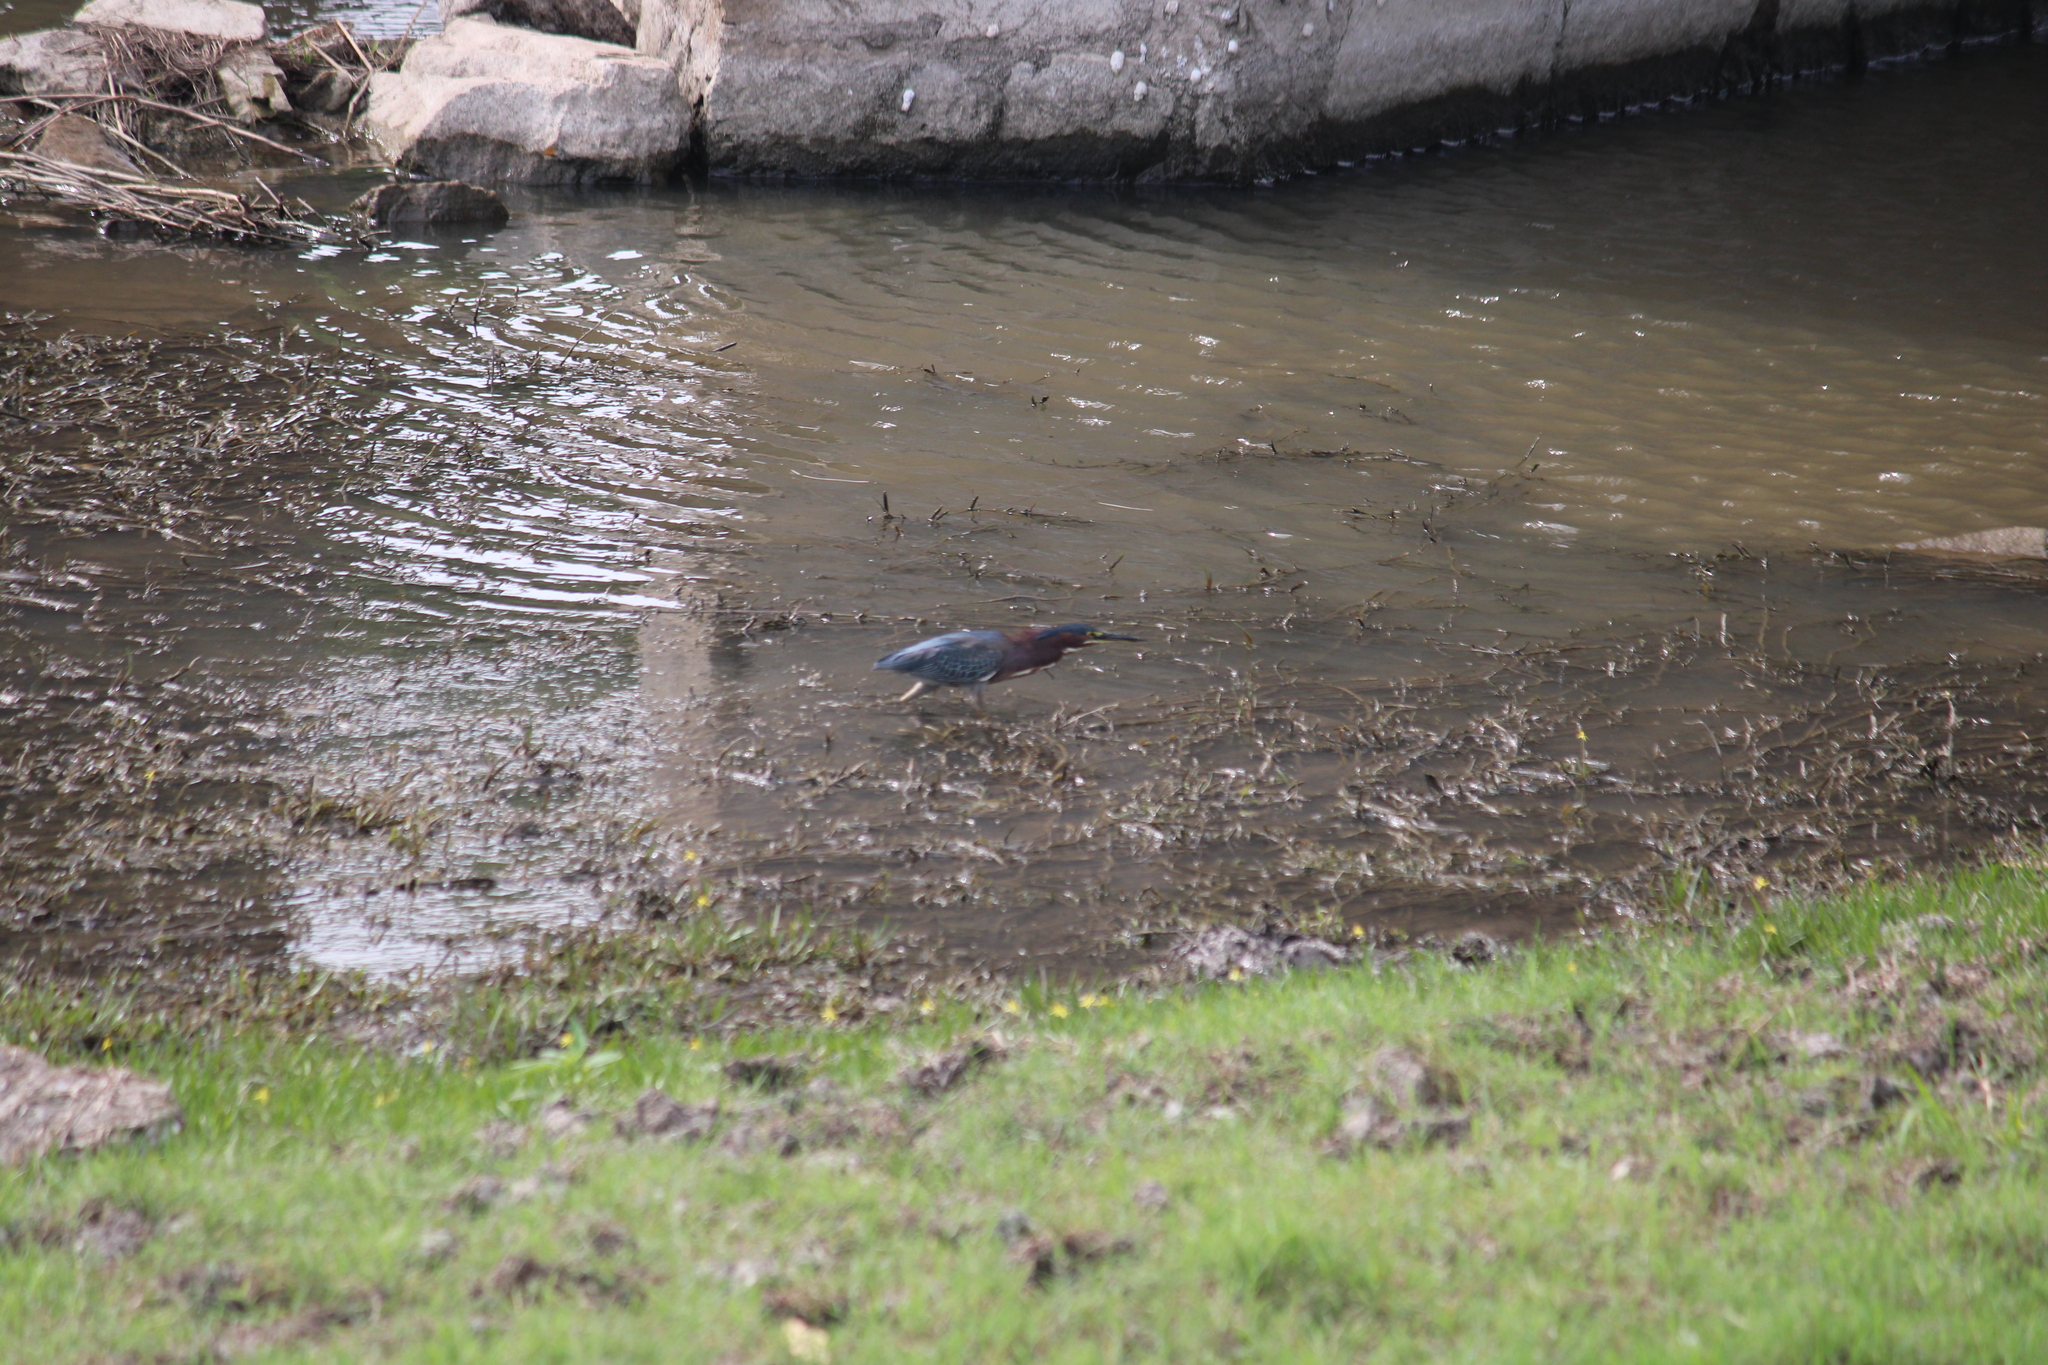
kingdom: Animalia
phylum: Chordata
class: Aves
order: Pelecaniformes
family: Ardeidae
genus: Butorides
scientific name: Butorides virescens
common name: Green heron
